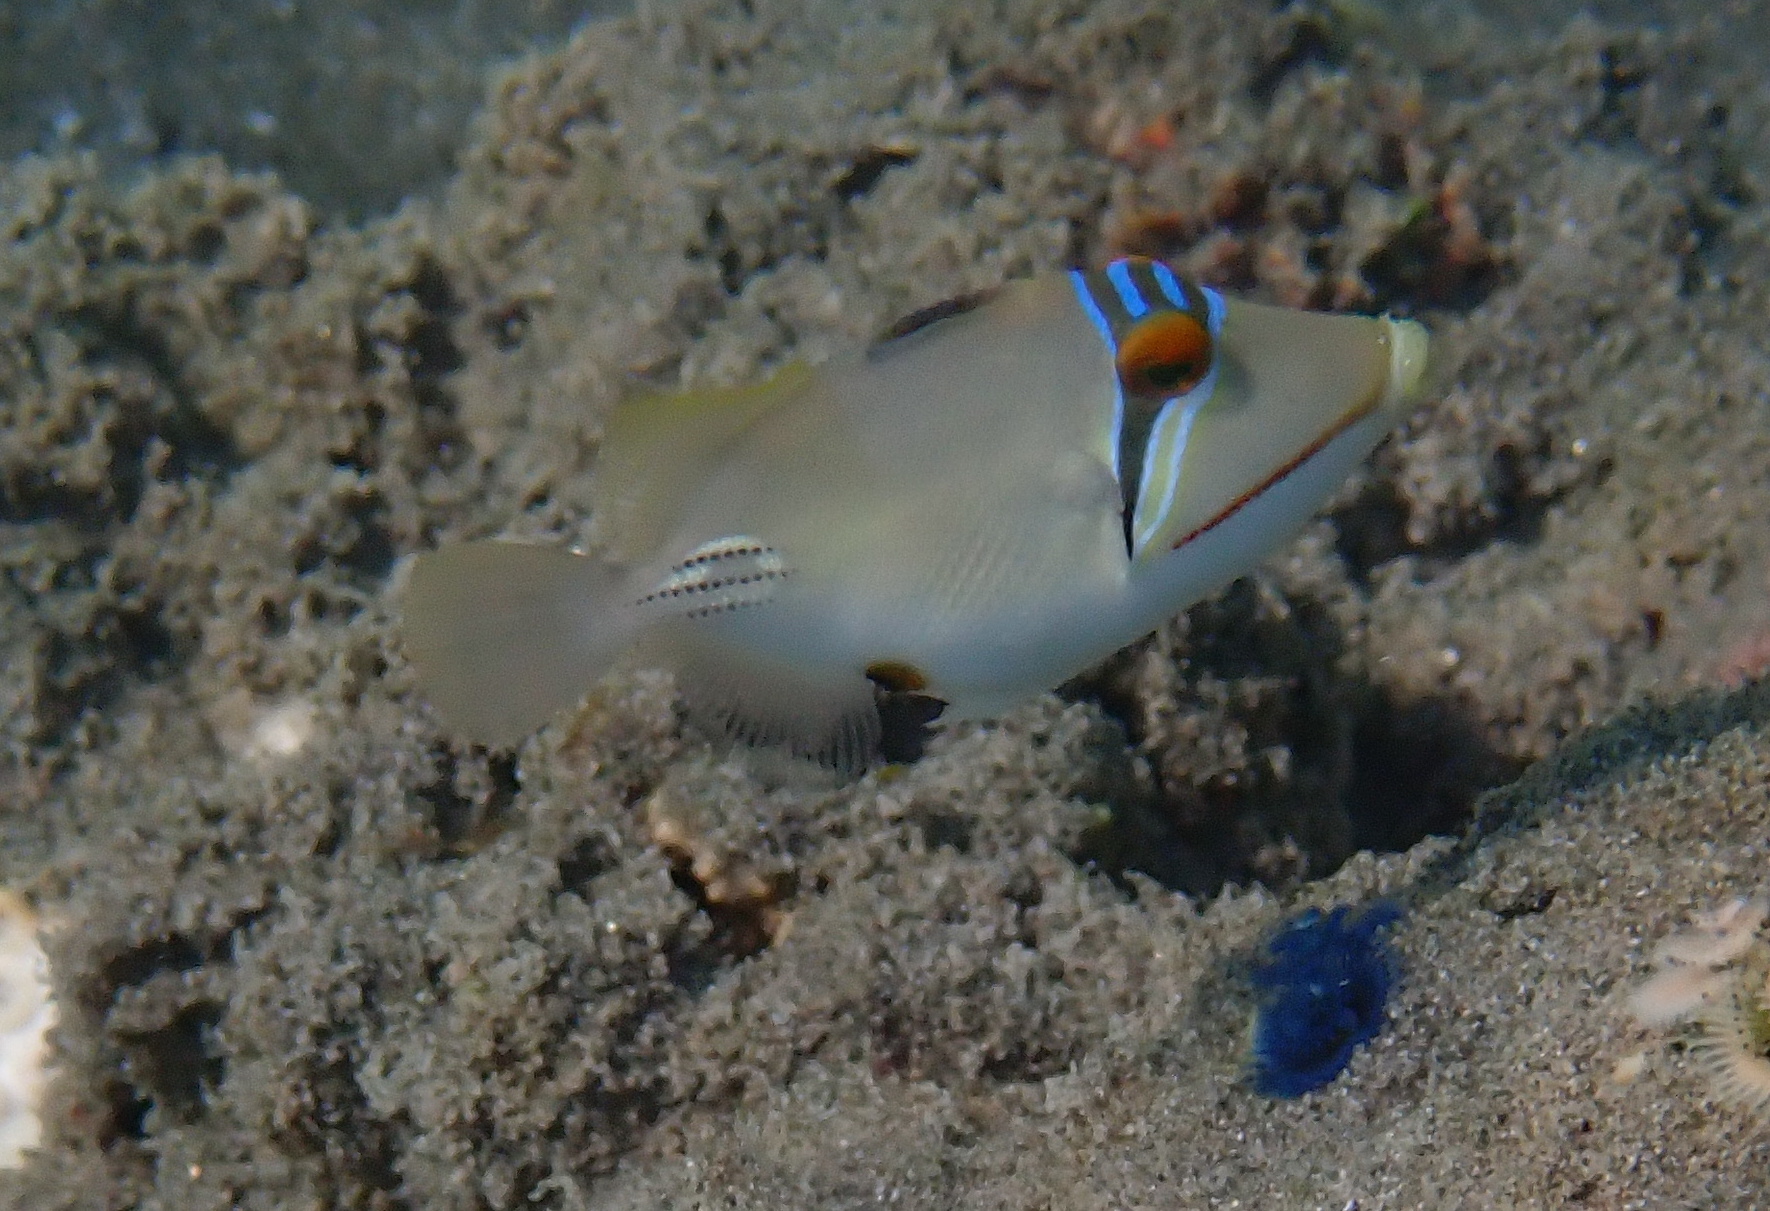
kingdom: Animalia
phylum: Chordata
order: Tetraodontiformes
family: Balistidae
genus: Rhinecanthus
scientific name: Rhinecanthus assasi
